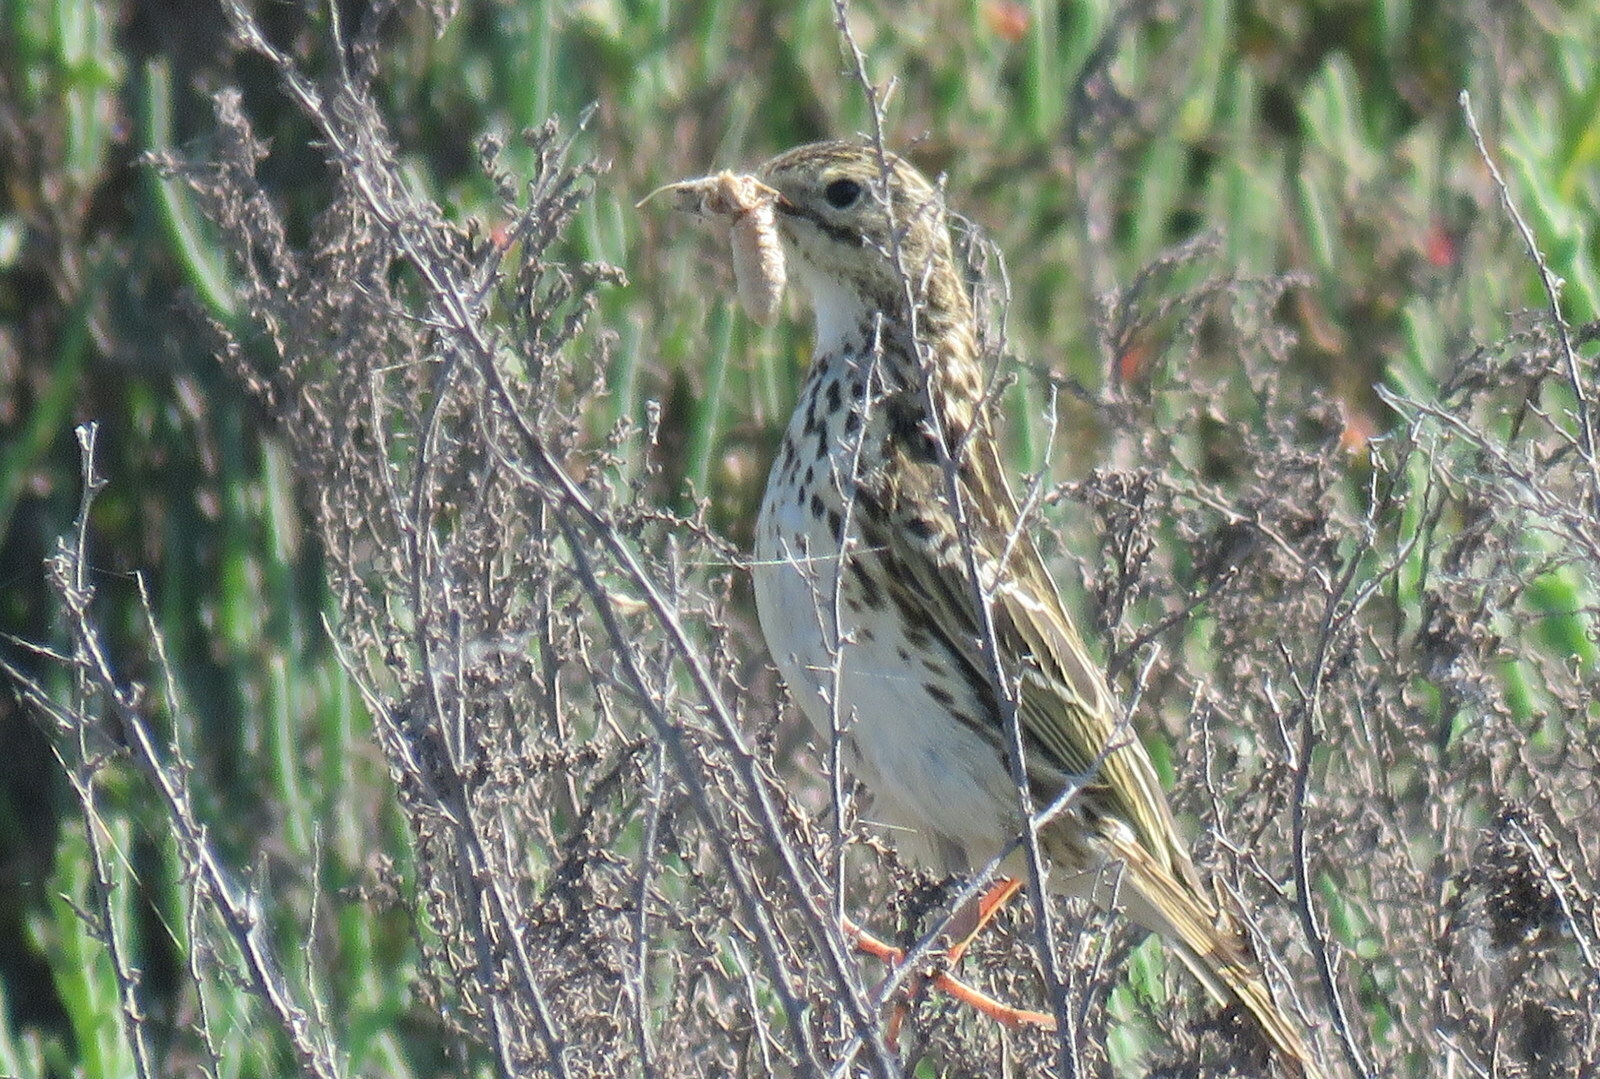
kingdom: Animalia
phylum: Chordata
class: Aves
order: Passeriformes
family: Motacillidae
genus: Anthus
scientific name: Anthus correndera
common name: Correndera pipit
